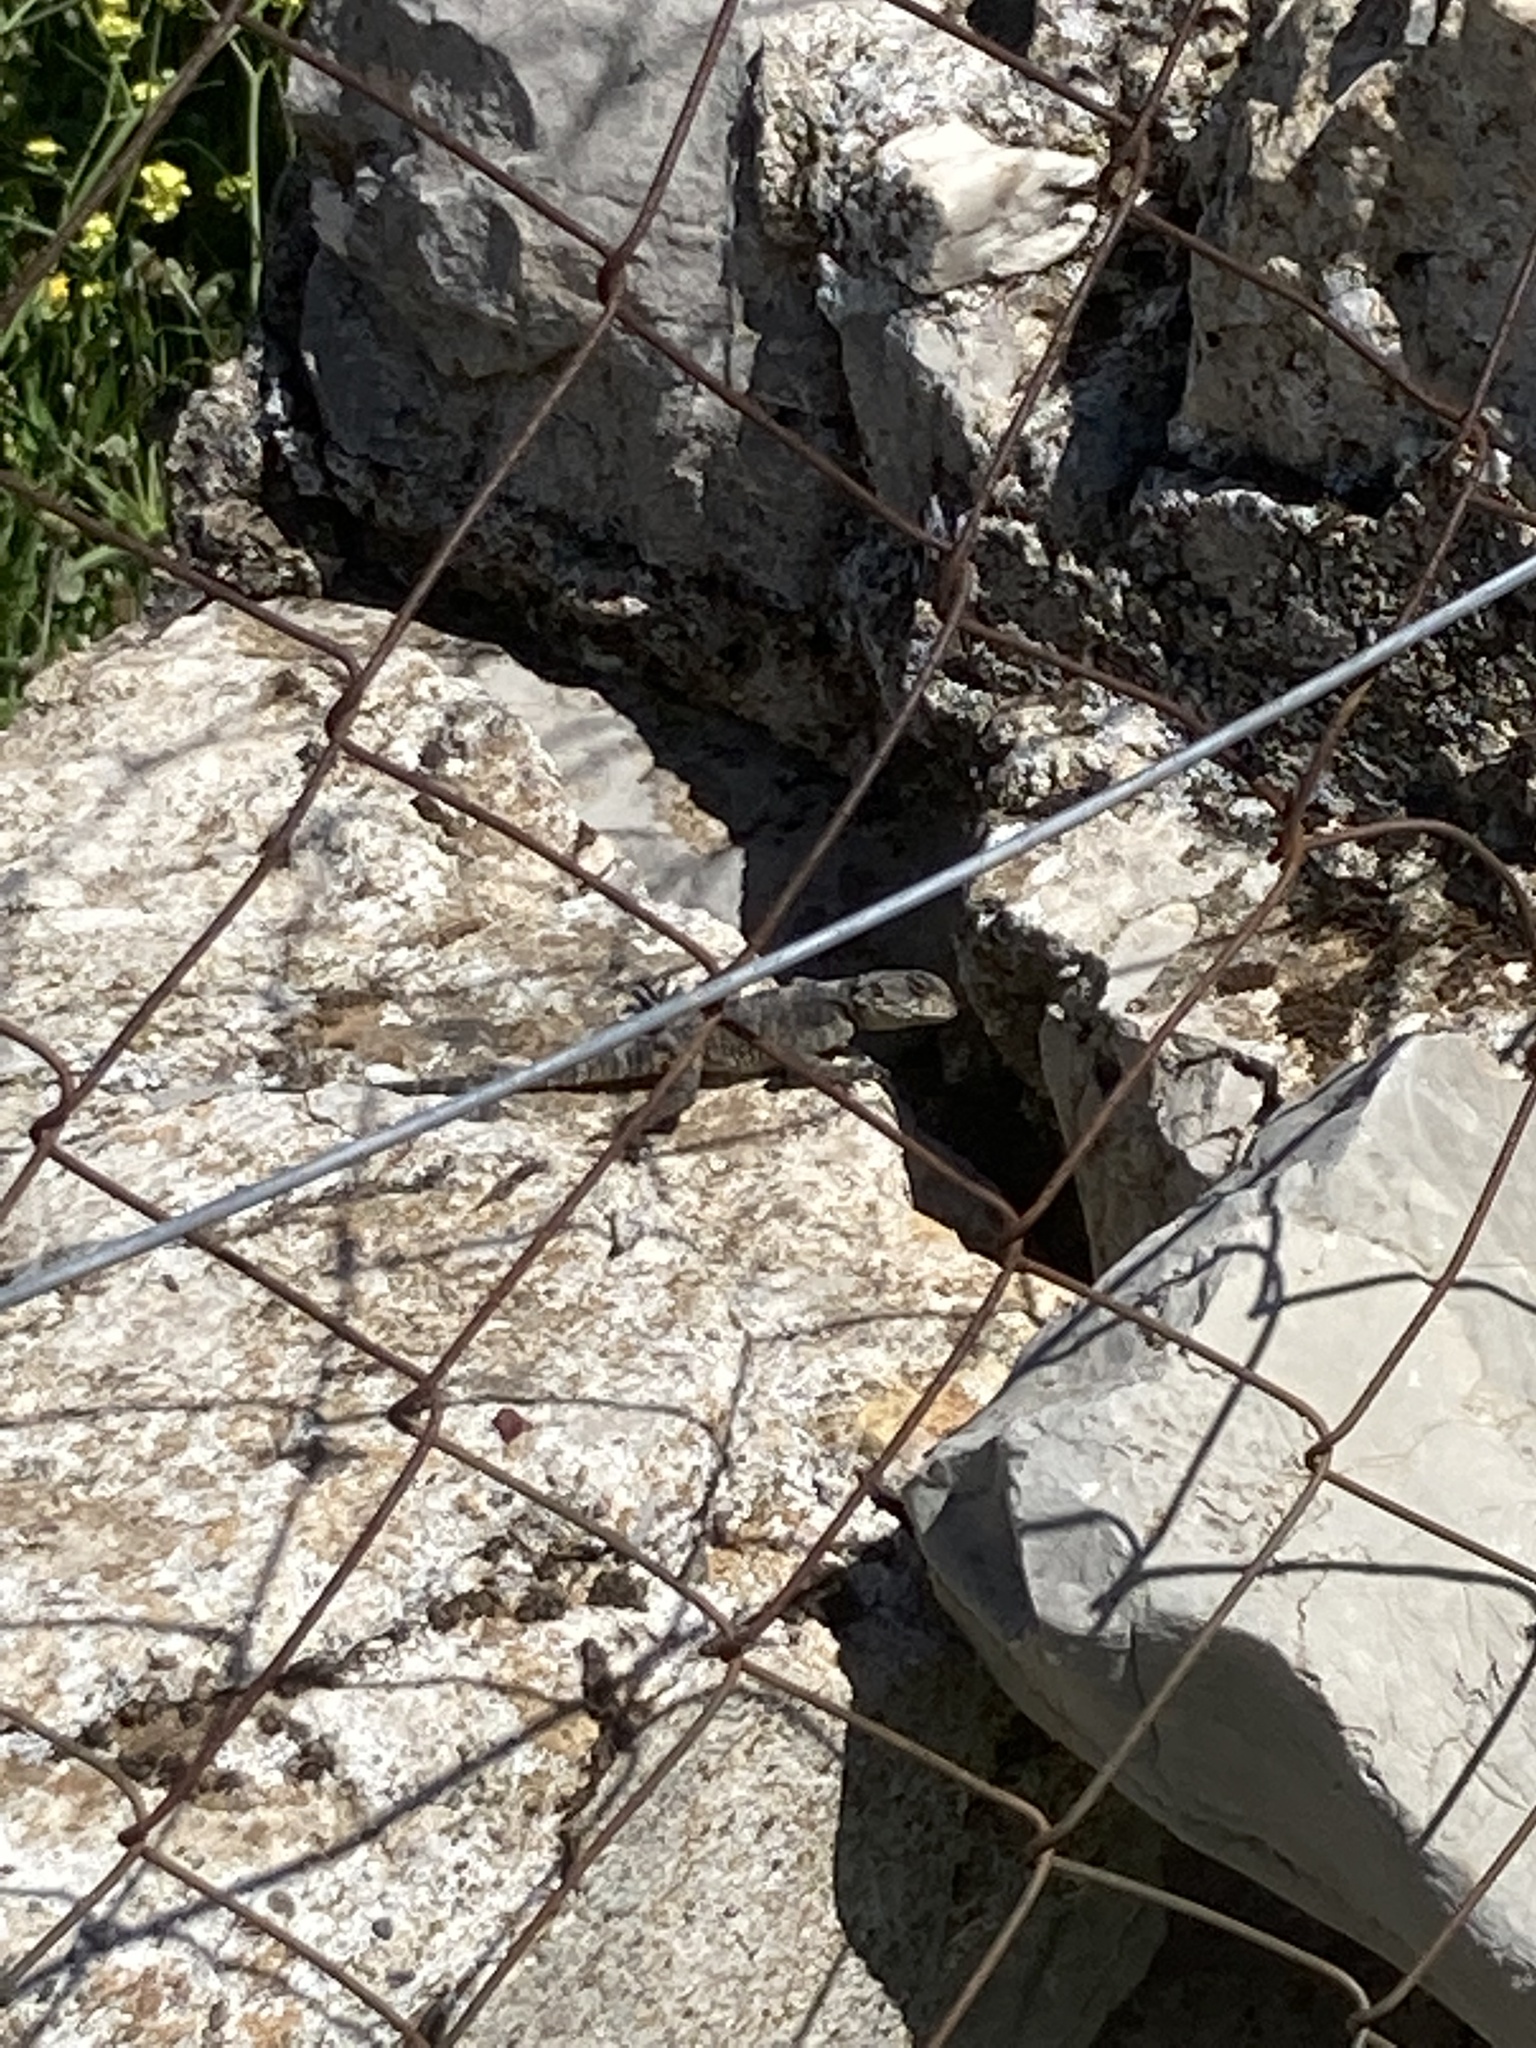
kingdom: Animalia
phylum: Chordata
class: Squamata
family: Agamidae
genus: Stellagama
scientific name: Stellagama stellio
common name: Starred agama
